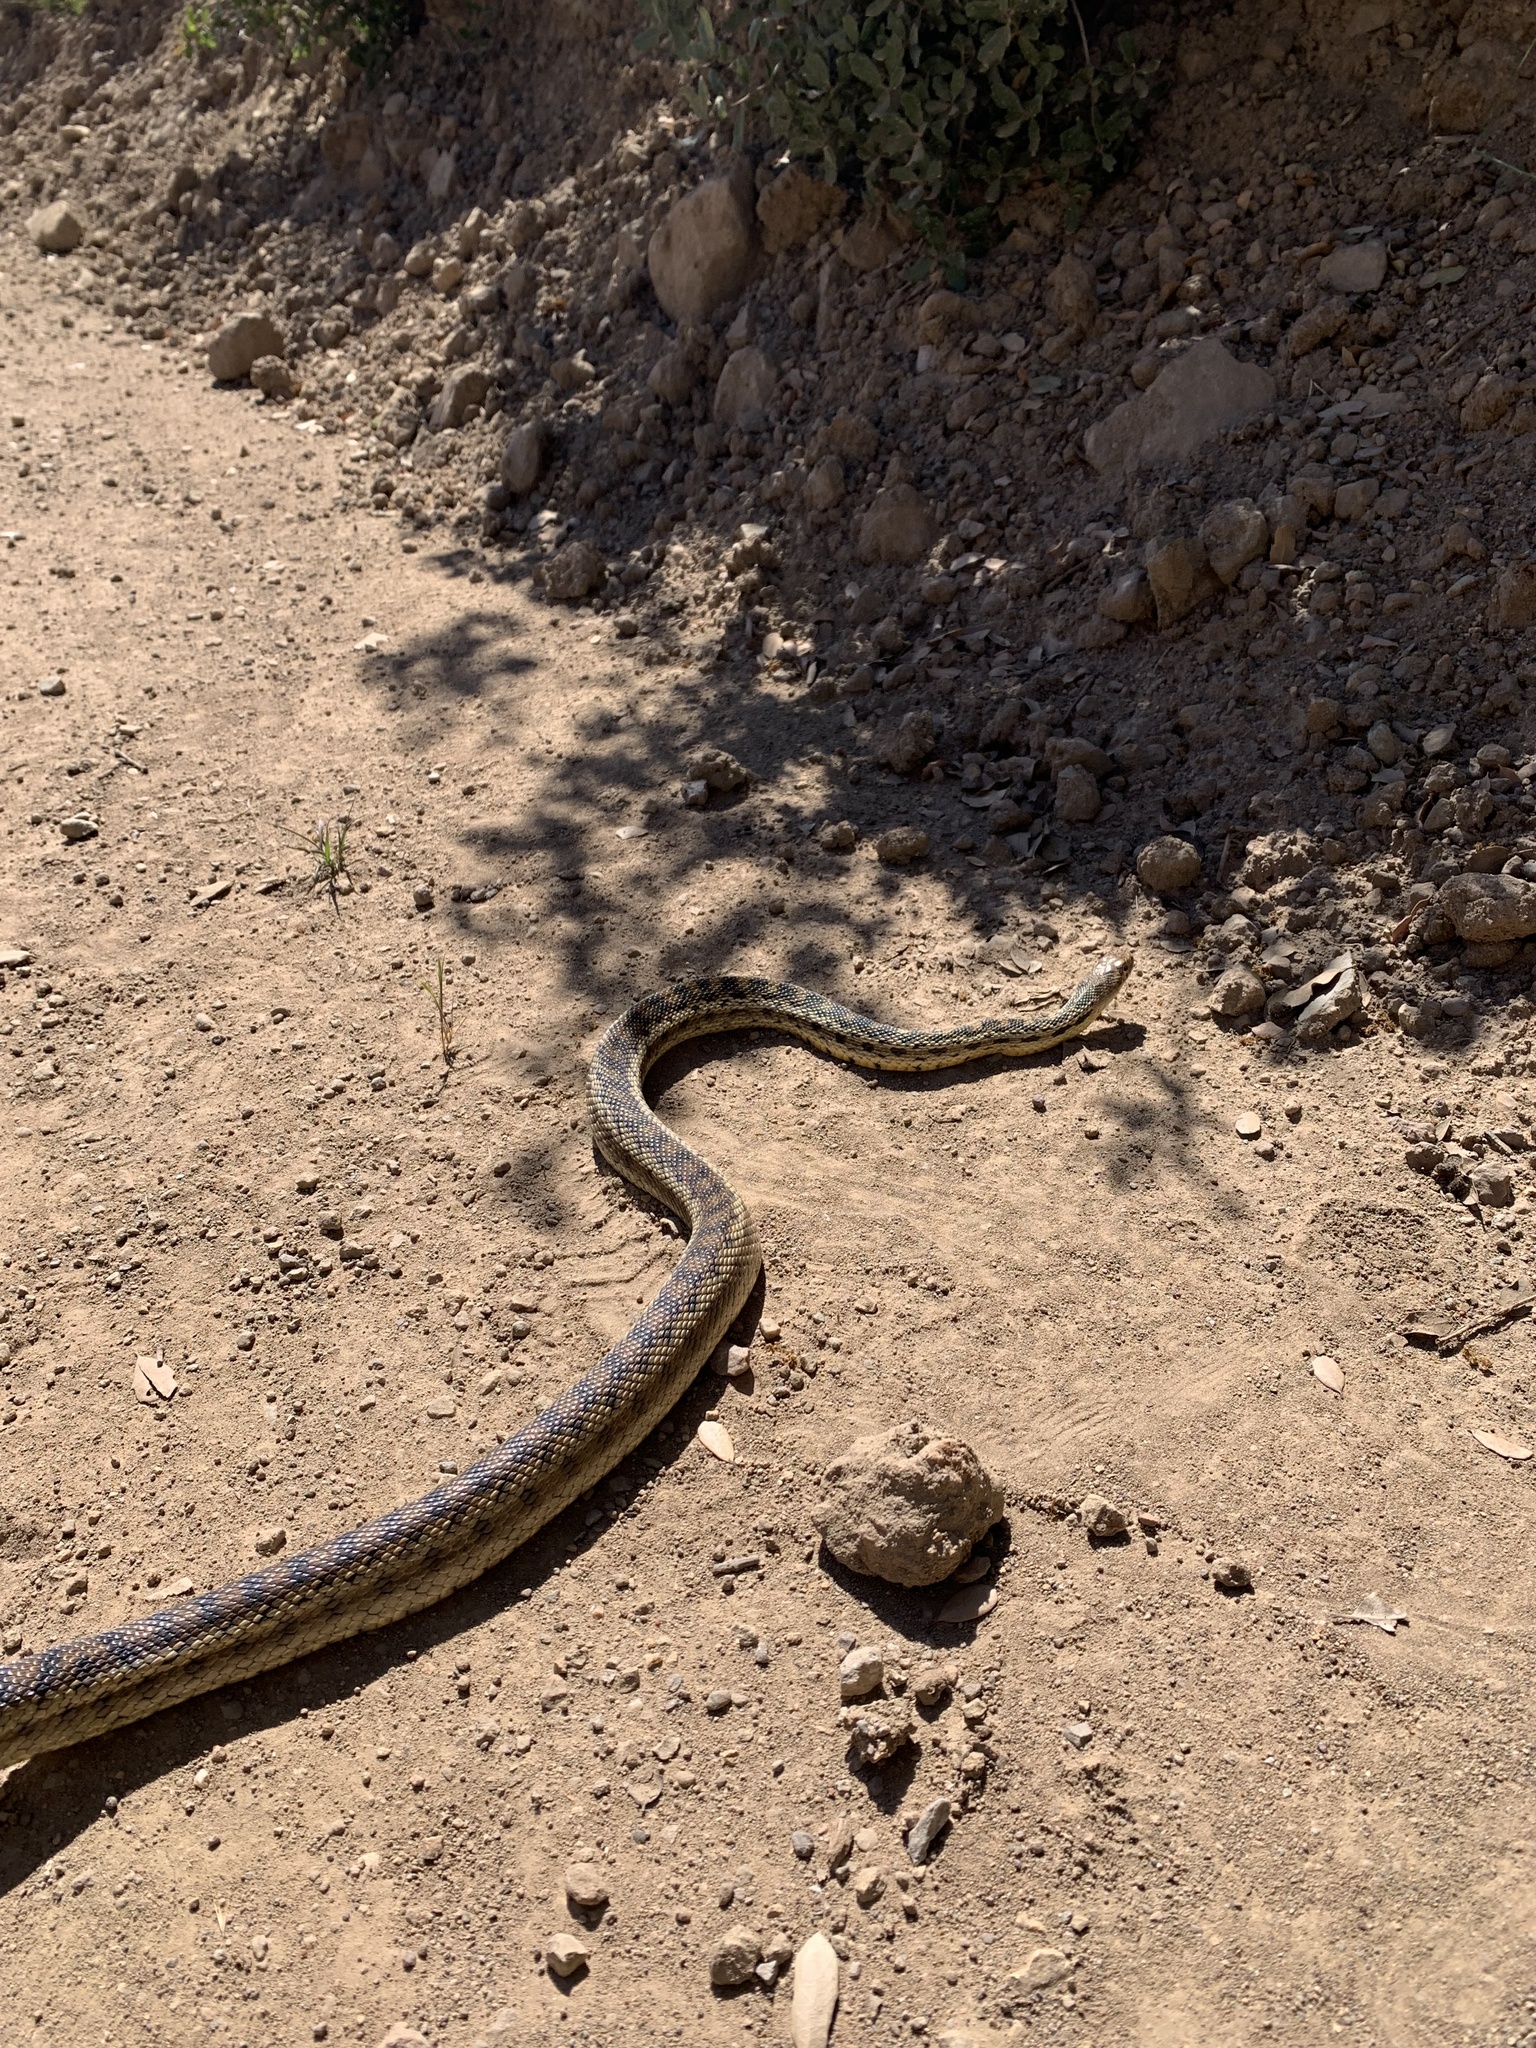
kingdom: Animalia
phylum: Chordata
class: Squamata
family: Colubridae
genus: Pituophis
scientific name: Pituophis catenifer
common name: Gopher snake
